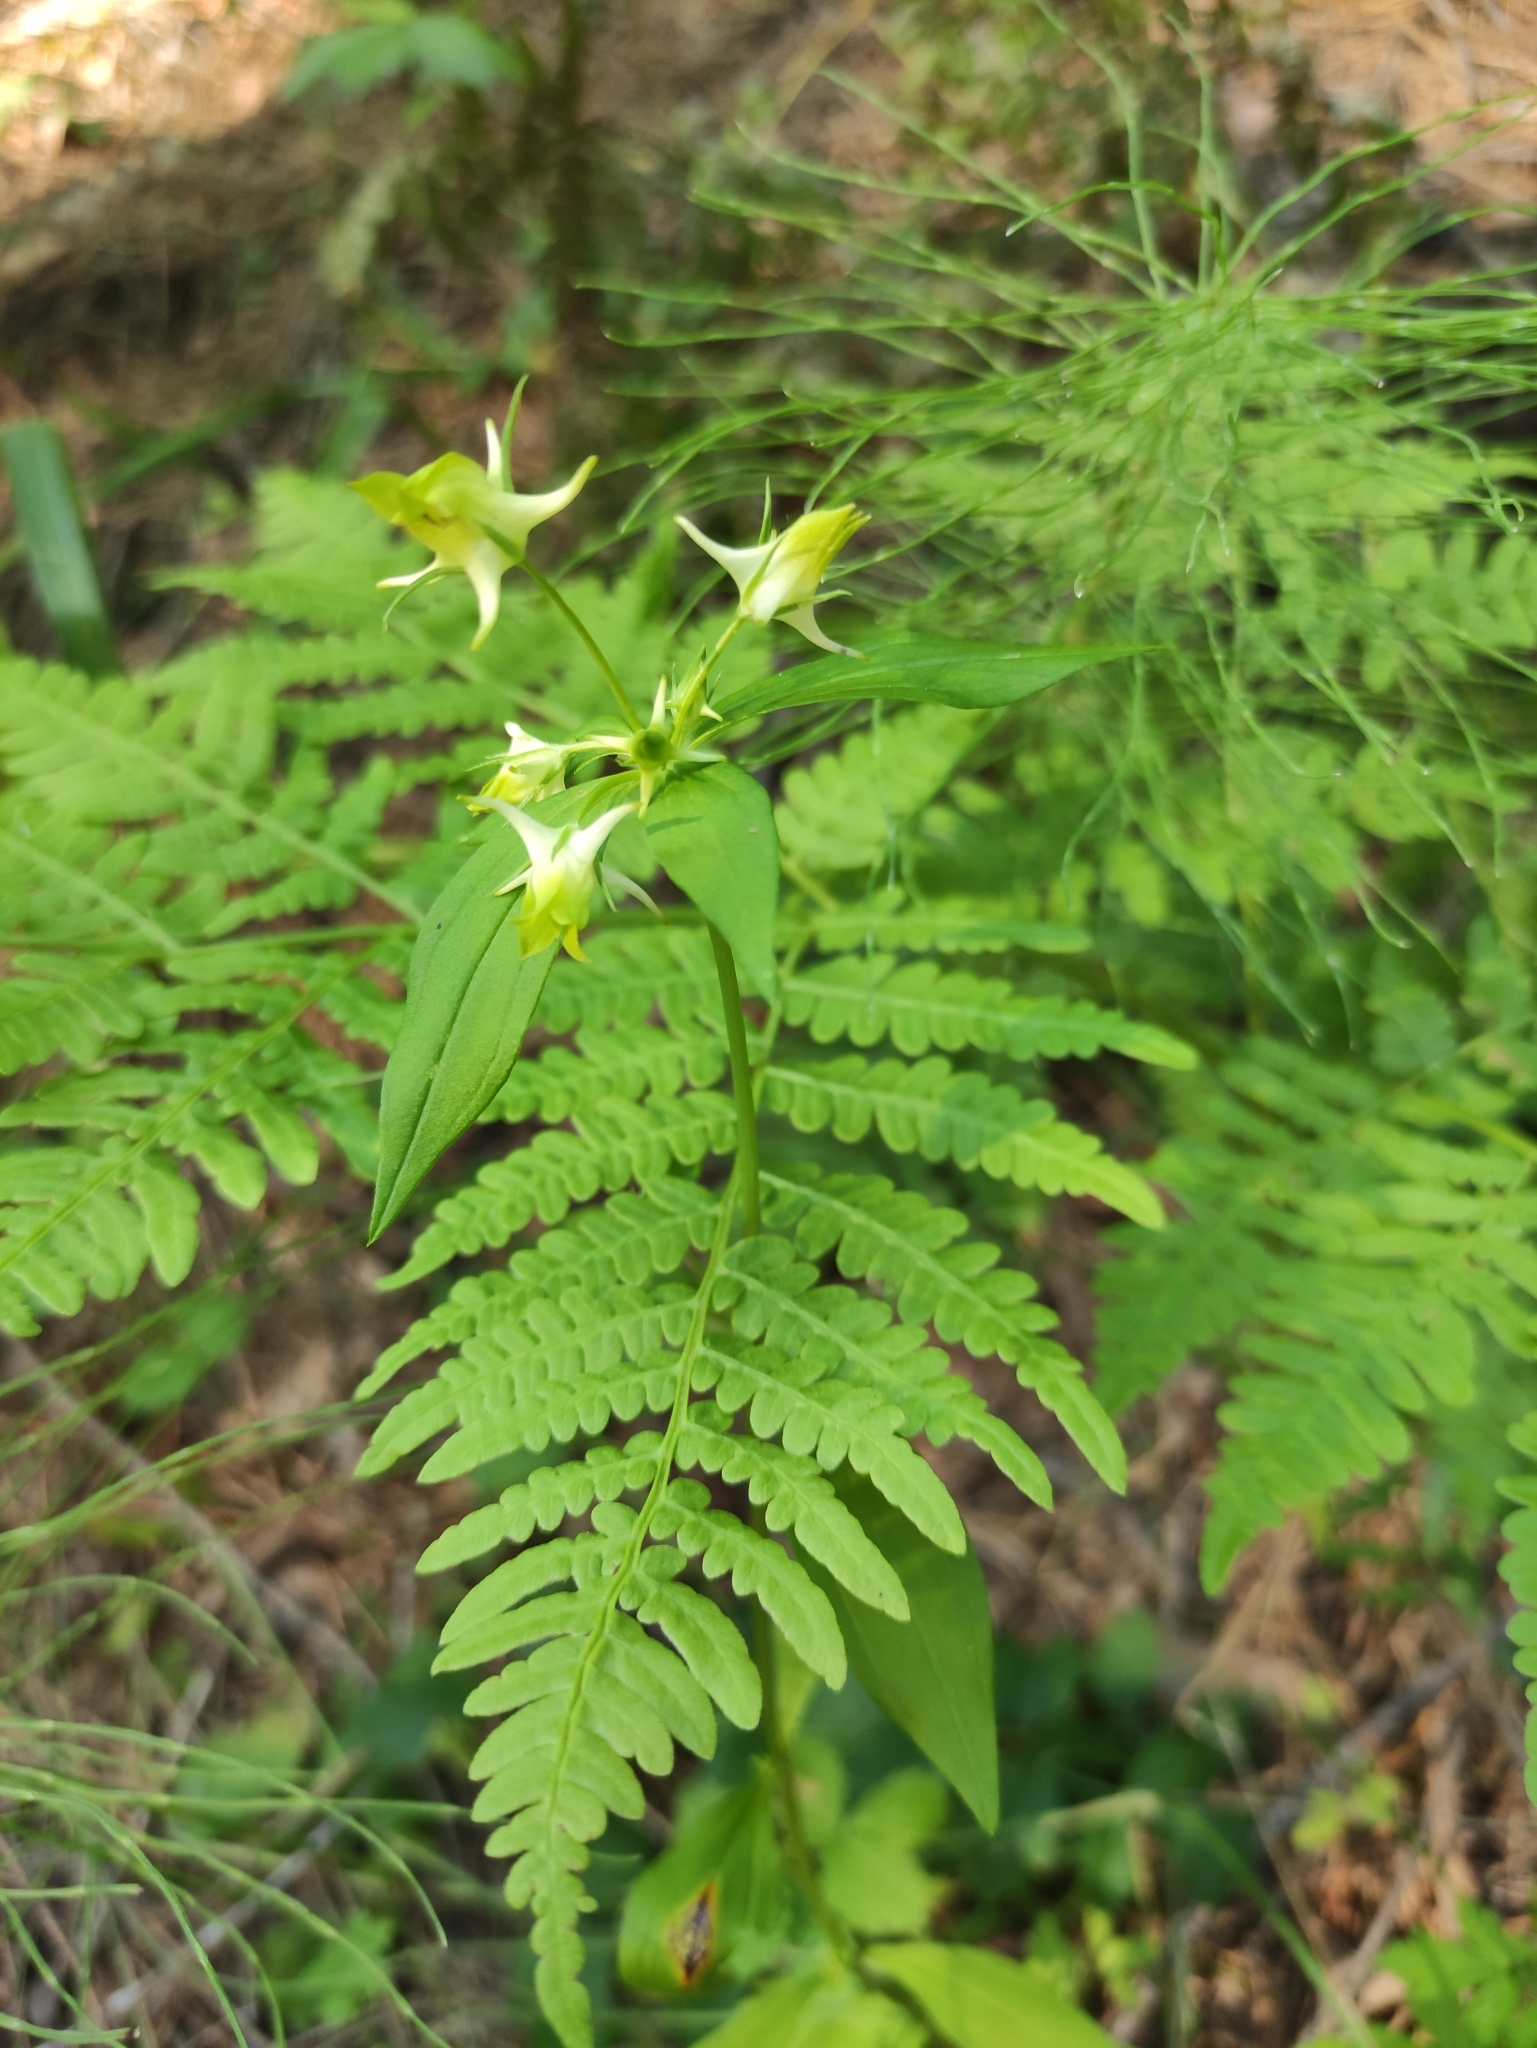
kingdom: Plantae
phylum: Tracheophyta
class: Magnoliopsida
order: Gentianales
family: Gentianaceae
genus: Halenia
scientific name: Halenia corniculata
